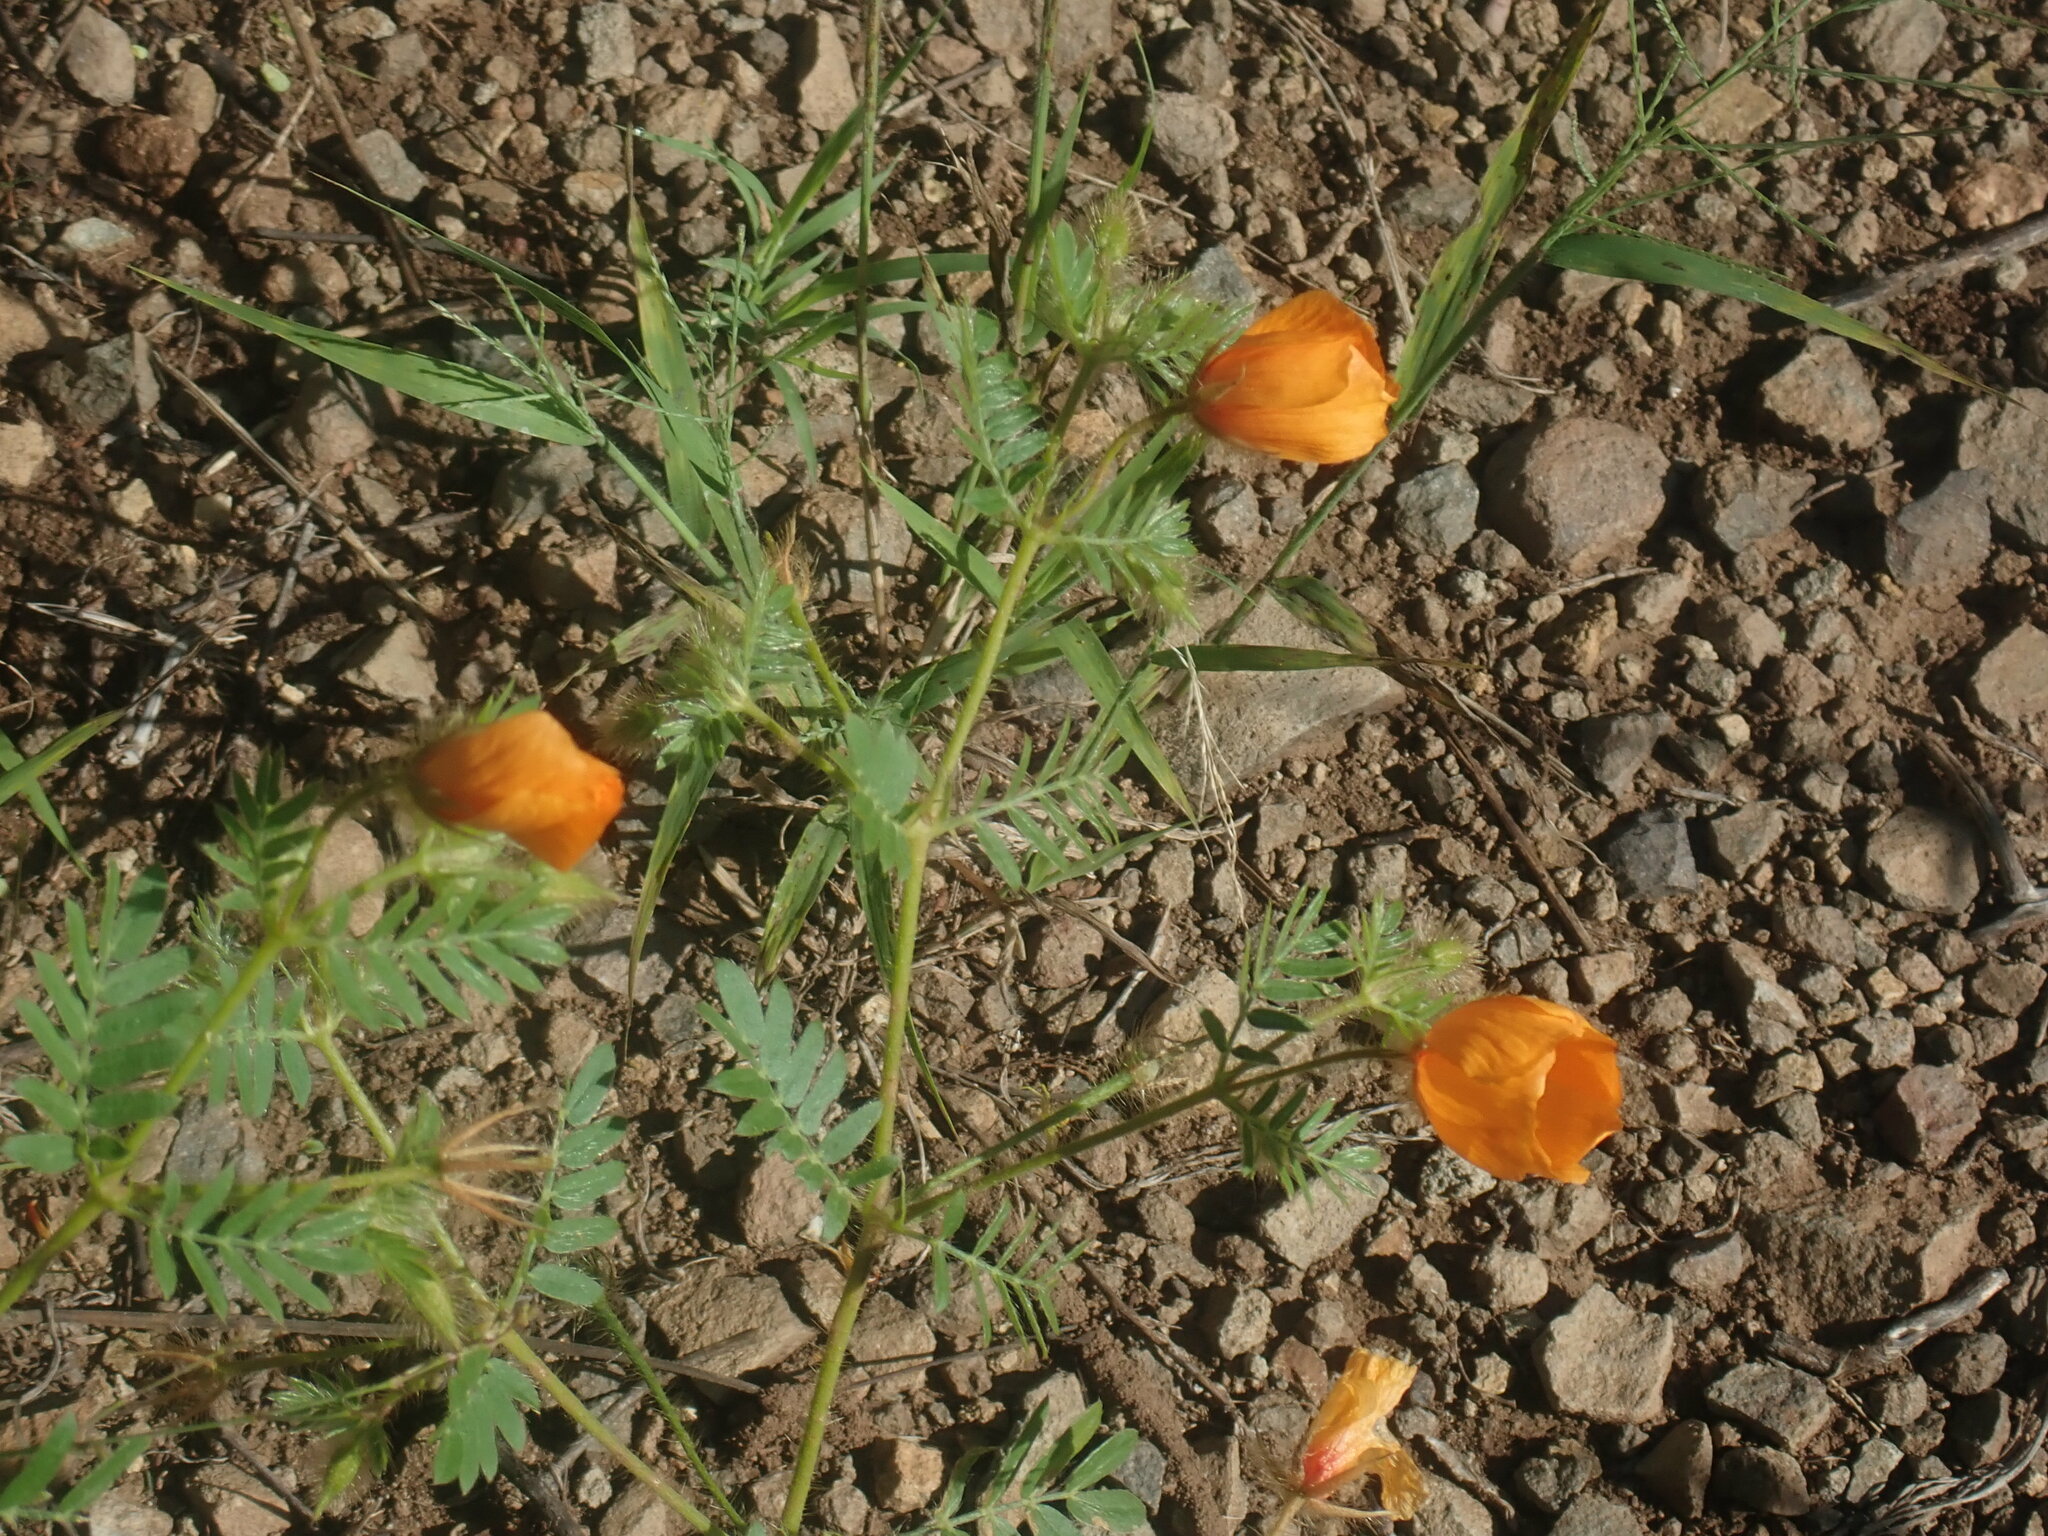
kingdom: Plantae
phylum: Tracheophyta
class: Magnoliopsida
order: Zygophyllales
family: Zygophyllaceae
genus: Kallstroemia
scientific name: Kallstroemia grandiflora
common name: Arizona-poppy
